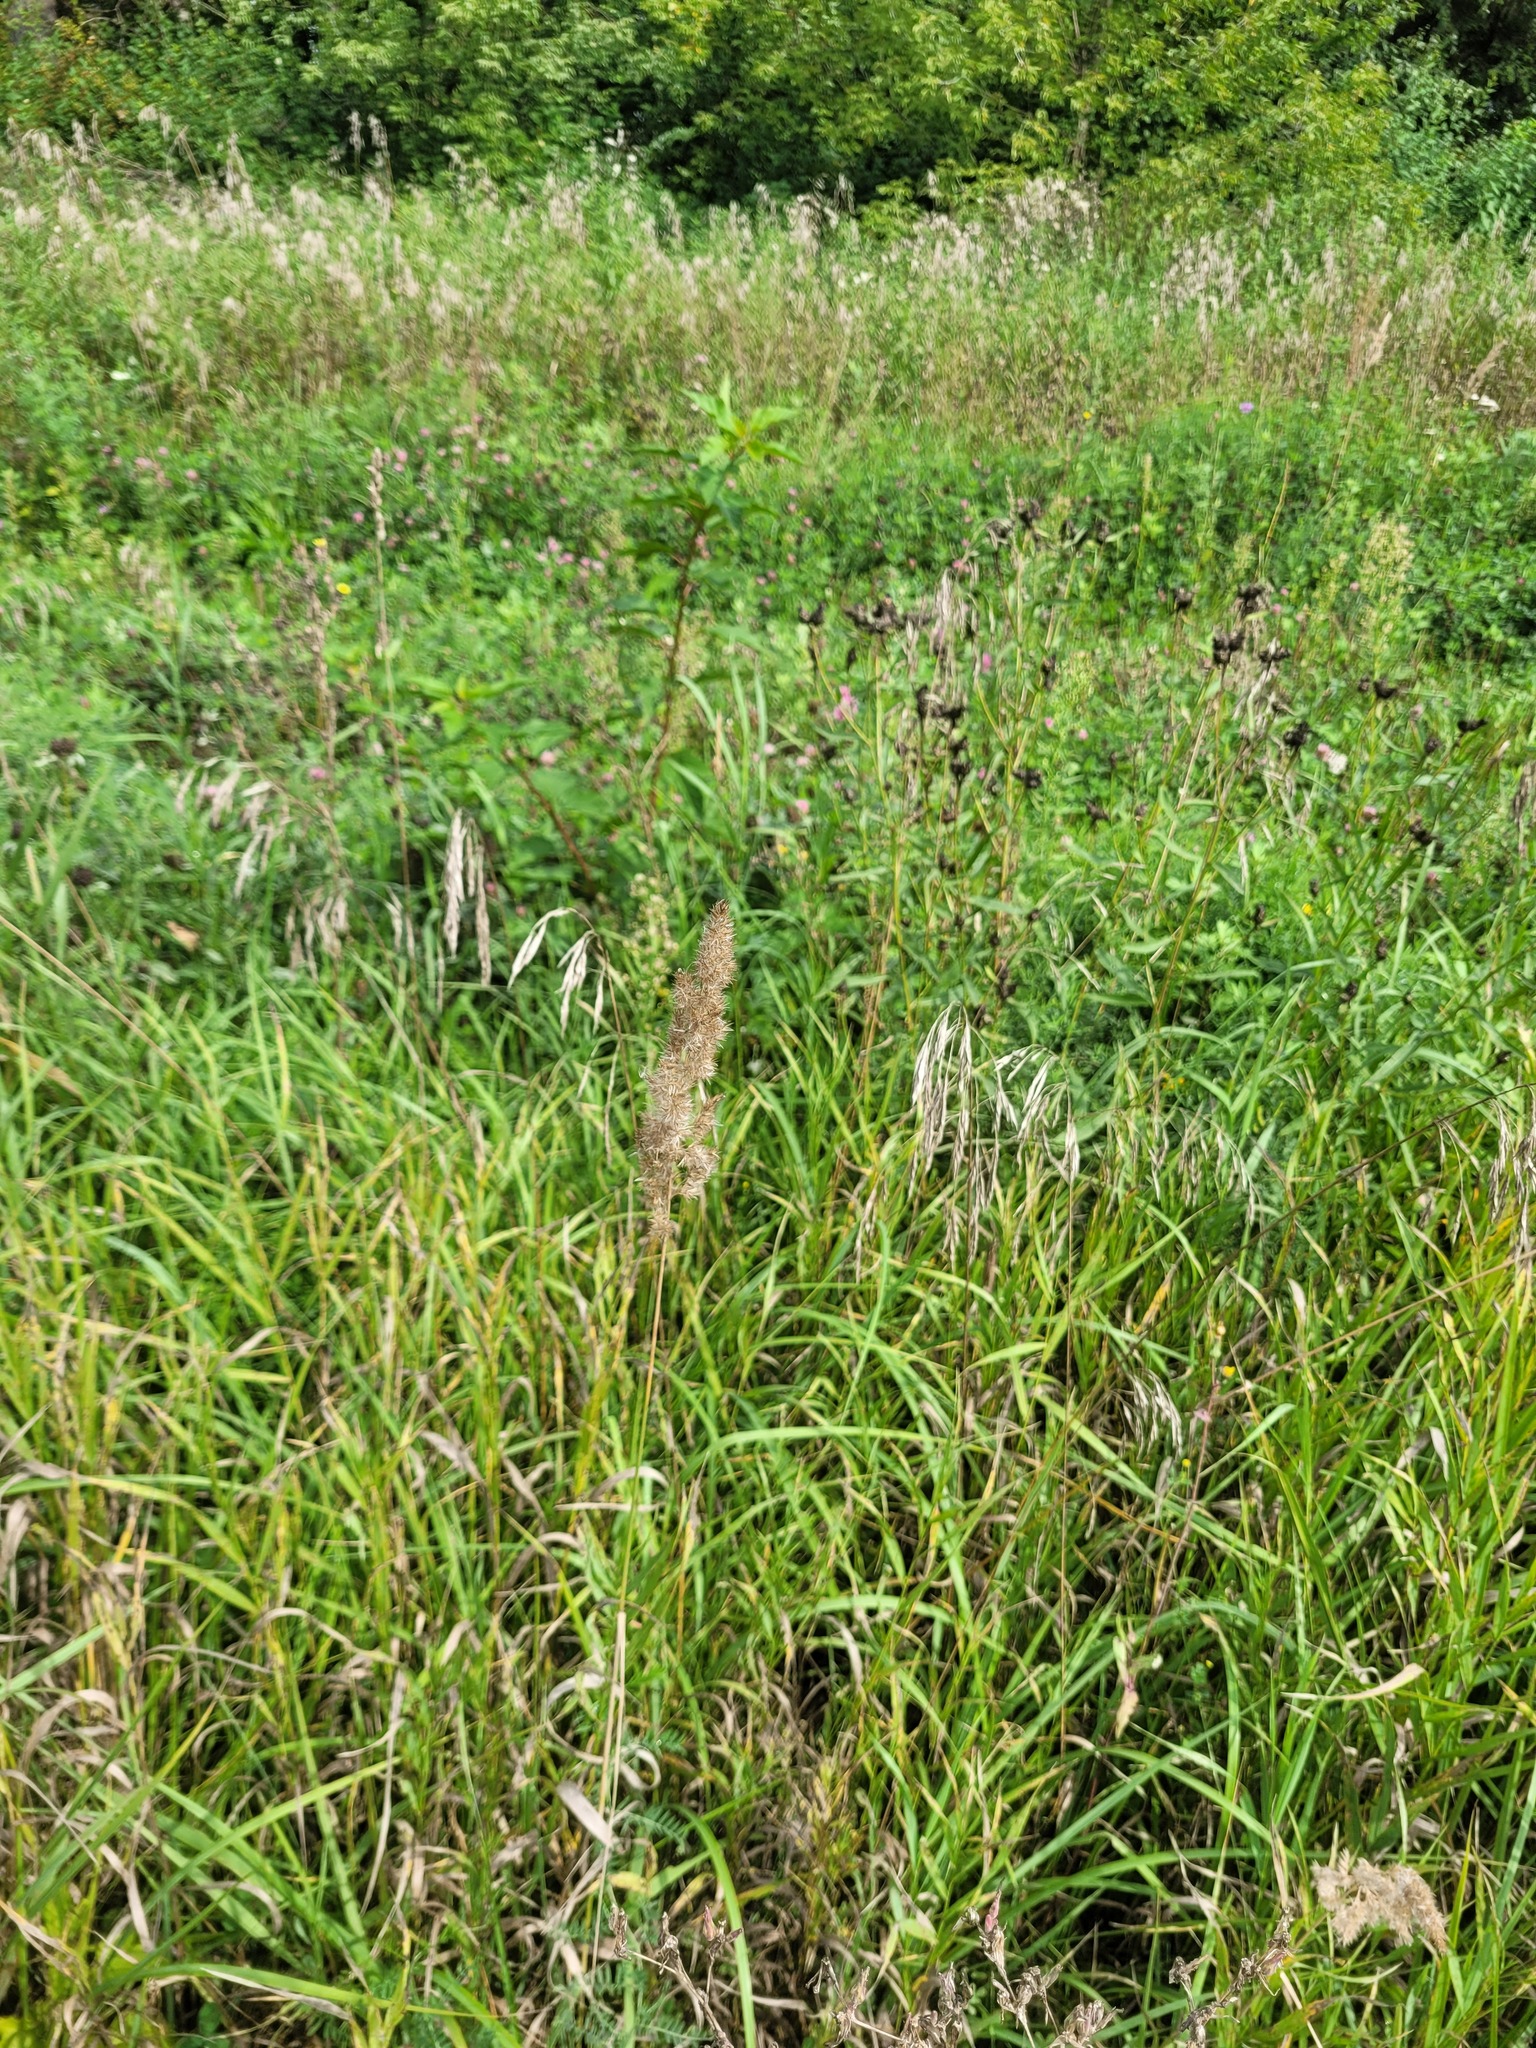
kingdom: Plantae
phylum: Tracheophyta
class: Liliopsida
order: Poales
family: Poaceae
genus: Calamagrostis
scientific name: Calamagrostis epigejos
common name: Wood small-reed
